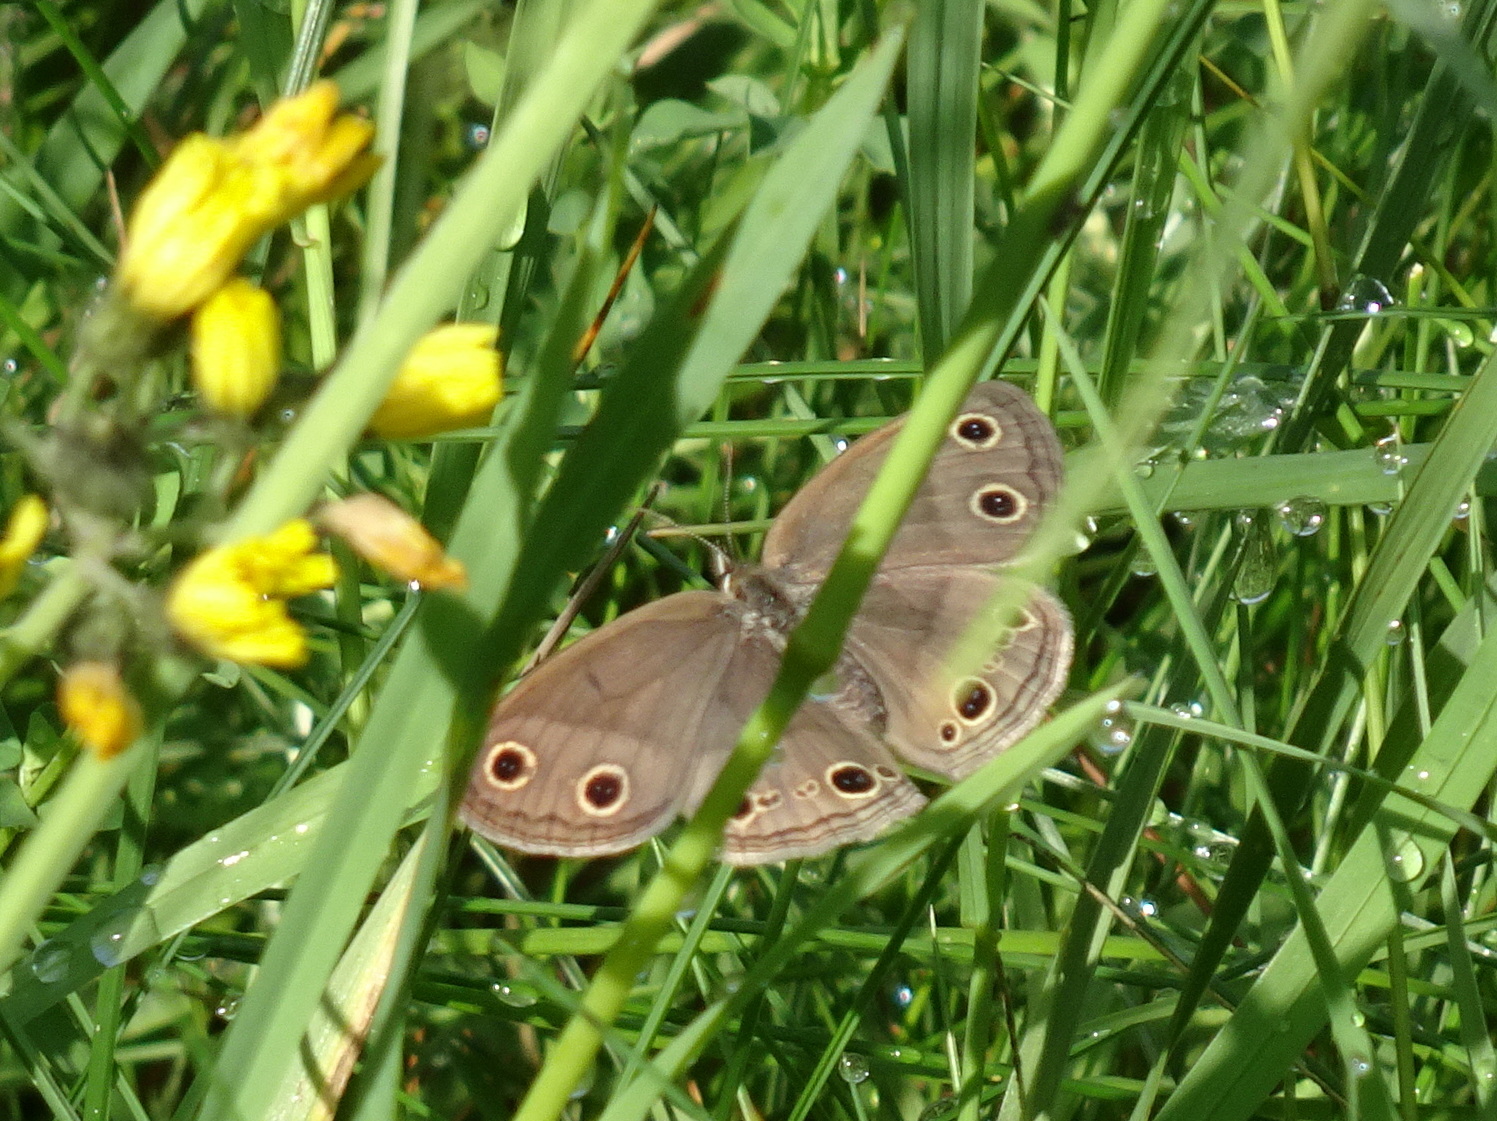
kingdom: Animalia
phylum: Arthropoda
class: Insecta
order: Lepidoptera
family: Nymphalidae
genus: Euptychia
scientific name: Euptychia cymela
